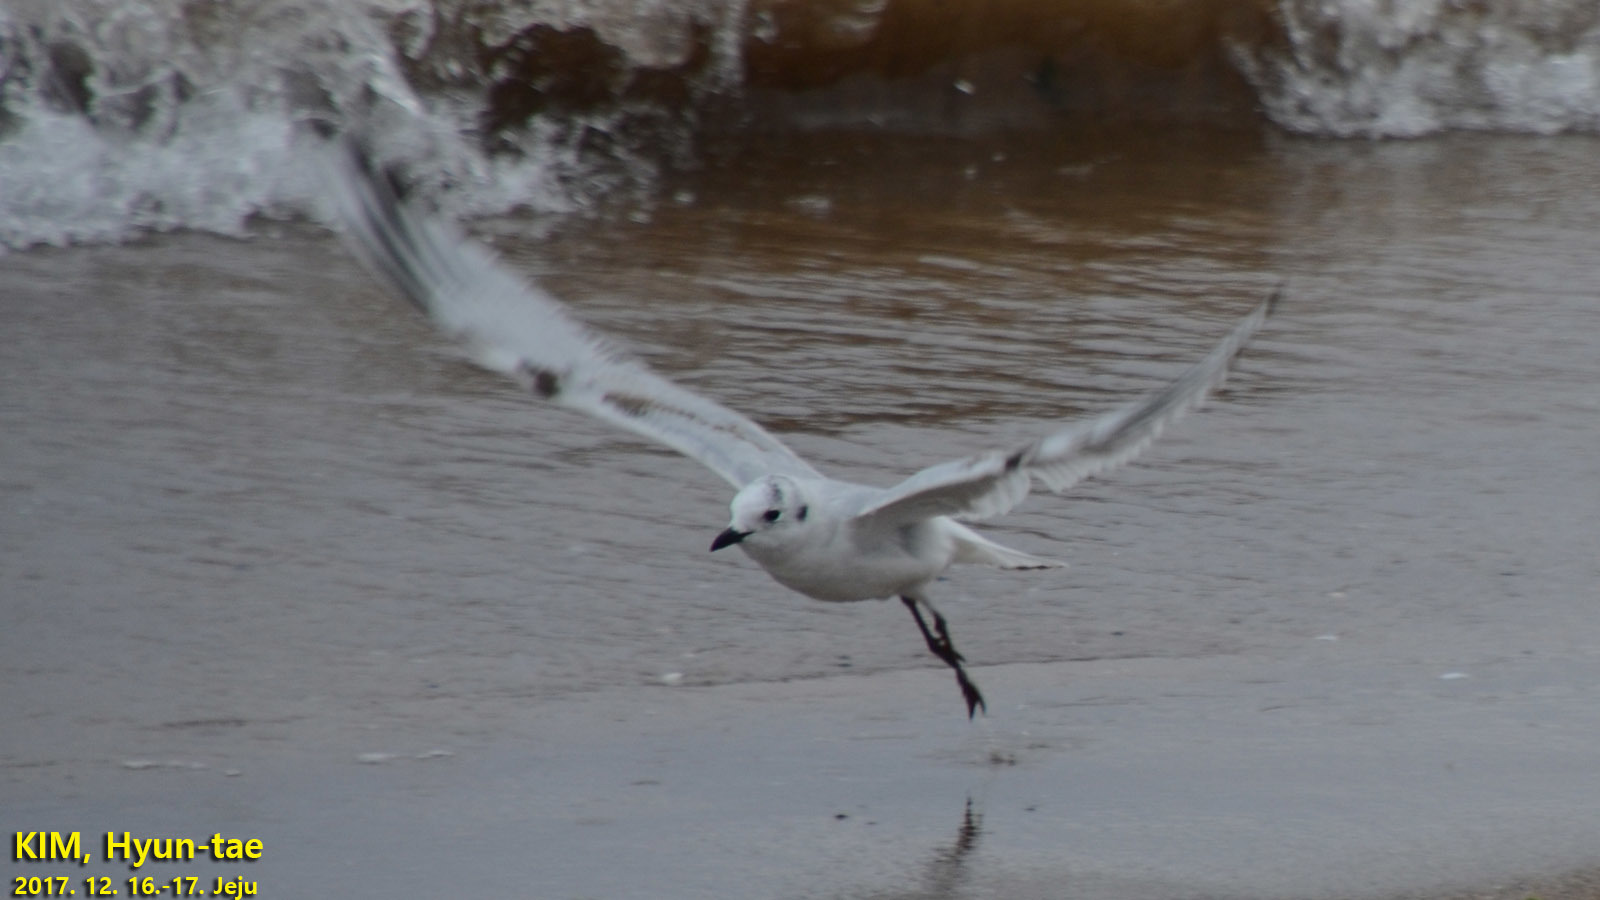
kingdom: Animalia
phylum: Chordata
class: Aves
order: Charadriiformes
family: Laridae
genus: Chroicocephalus
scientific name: Chroicocephalus saundersi
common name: Saunders's gull
